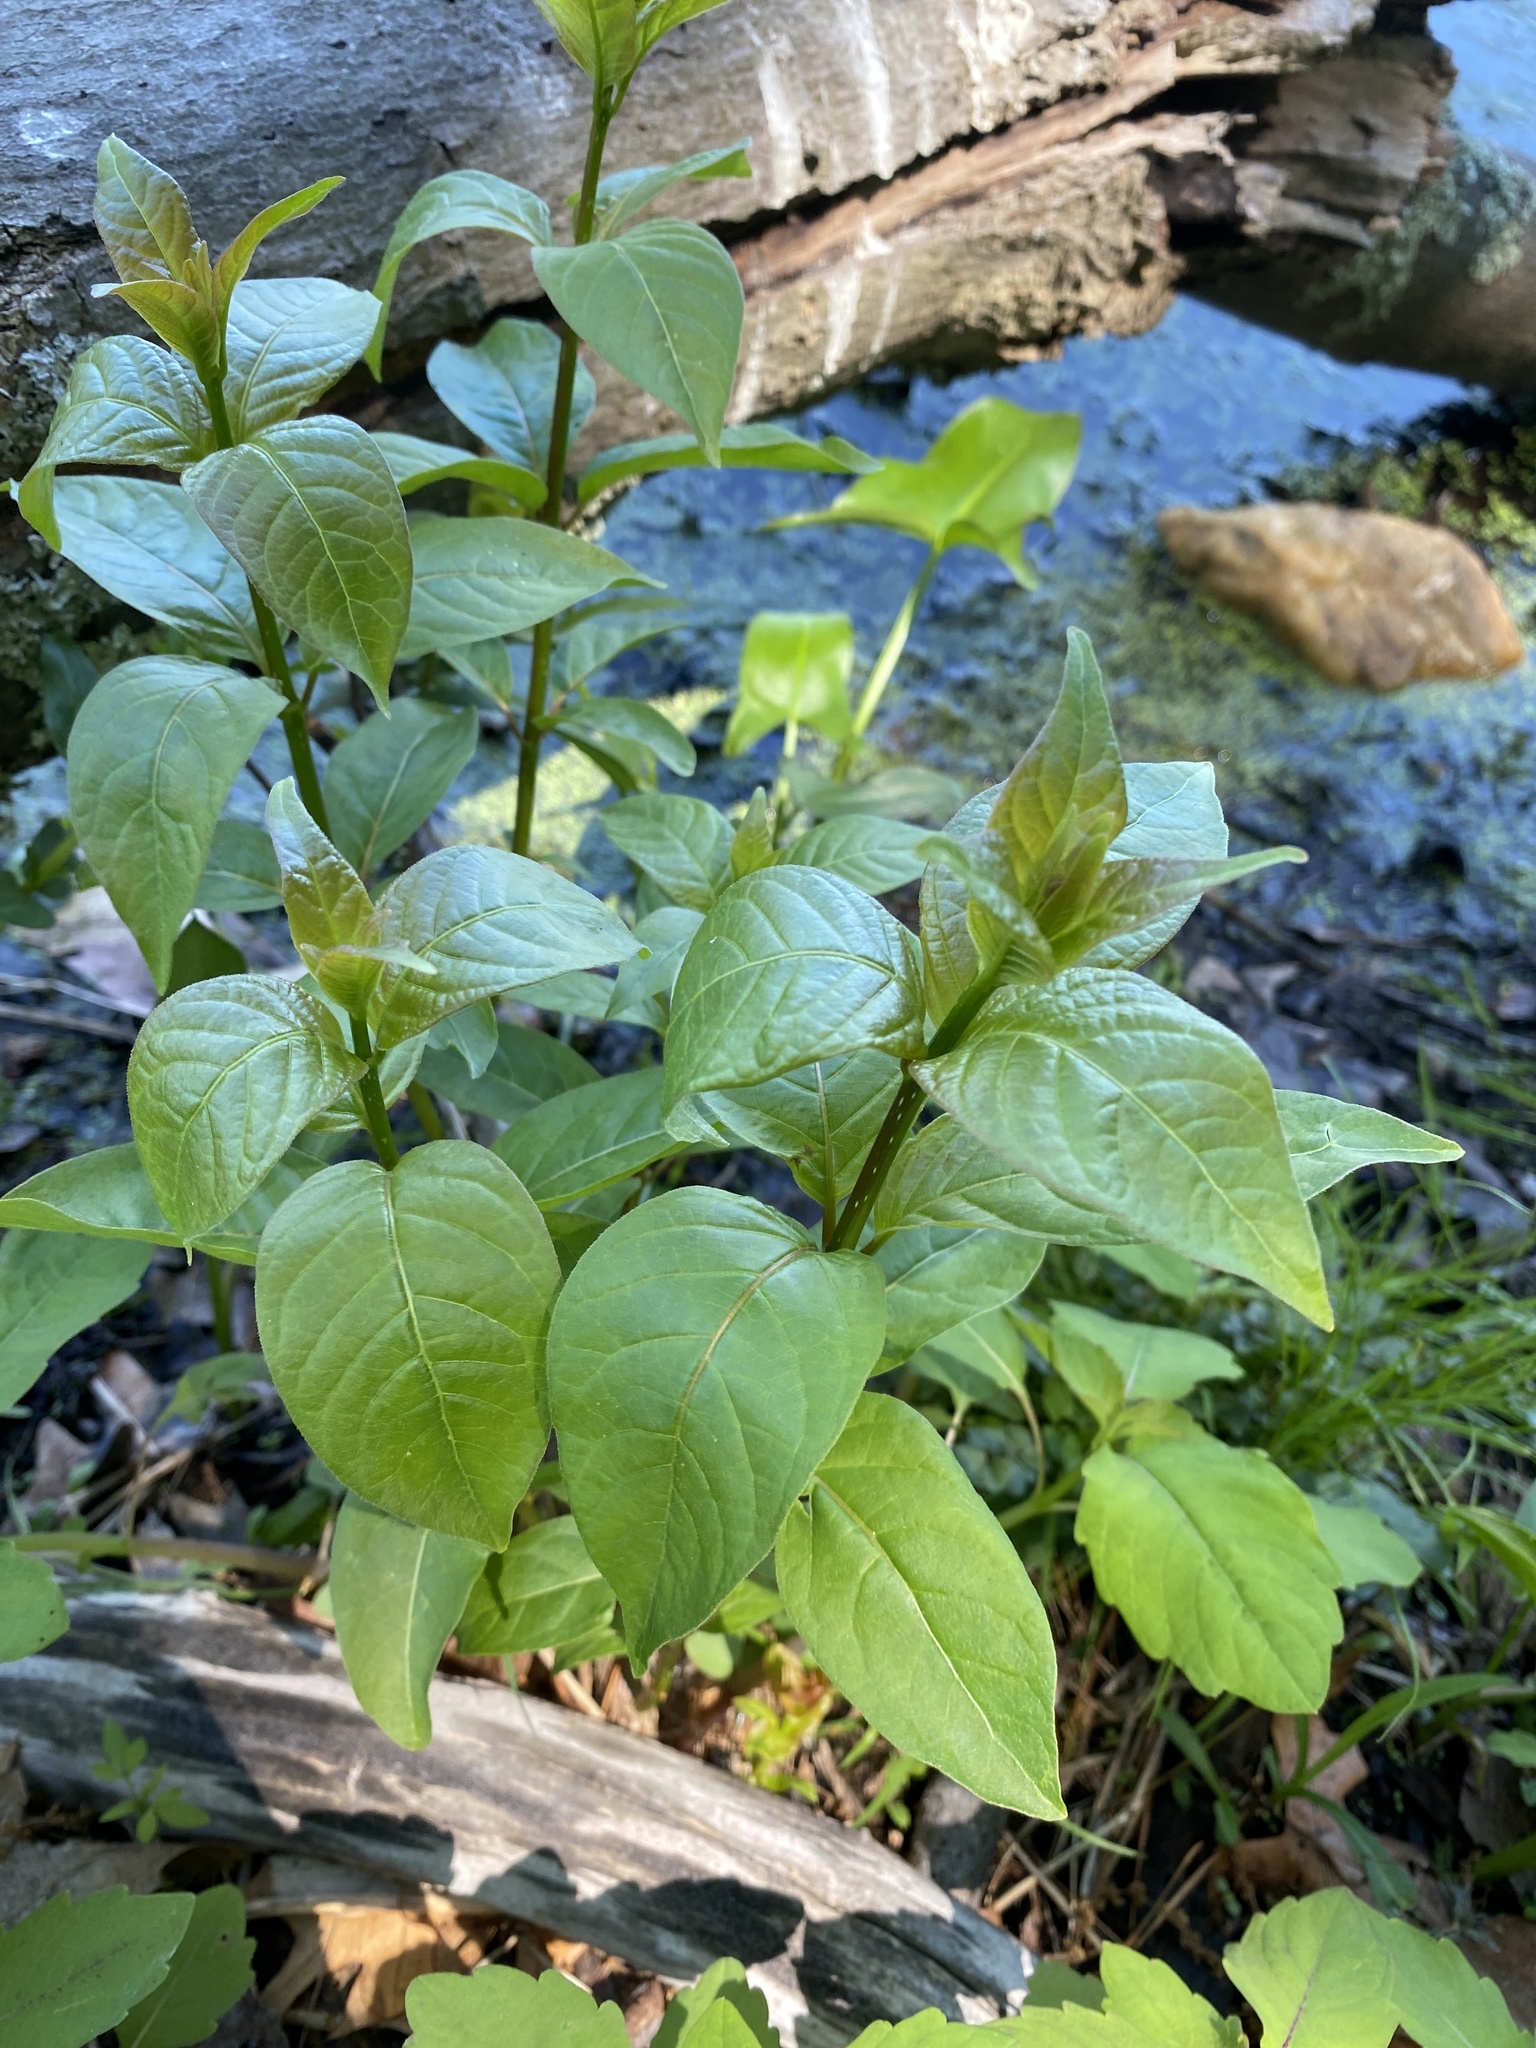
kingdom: Plantae
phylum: Tracheophyta
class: Magnoliopsida
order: Gentianales
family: Rubiaceae
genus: Cephalanthus
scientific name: Cephalanthus occidentalis
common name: Button-willow
